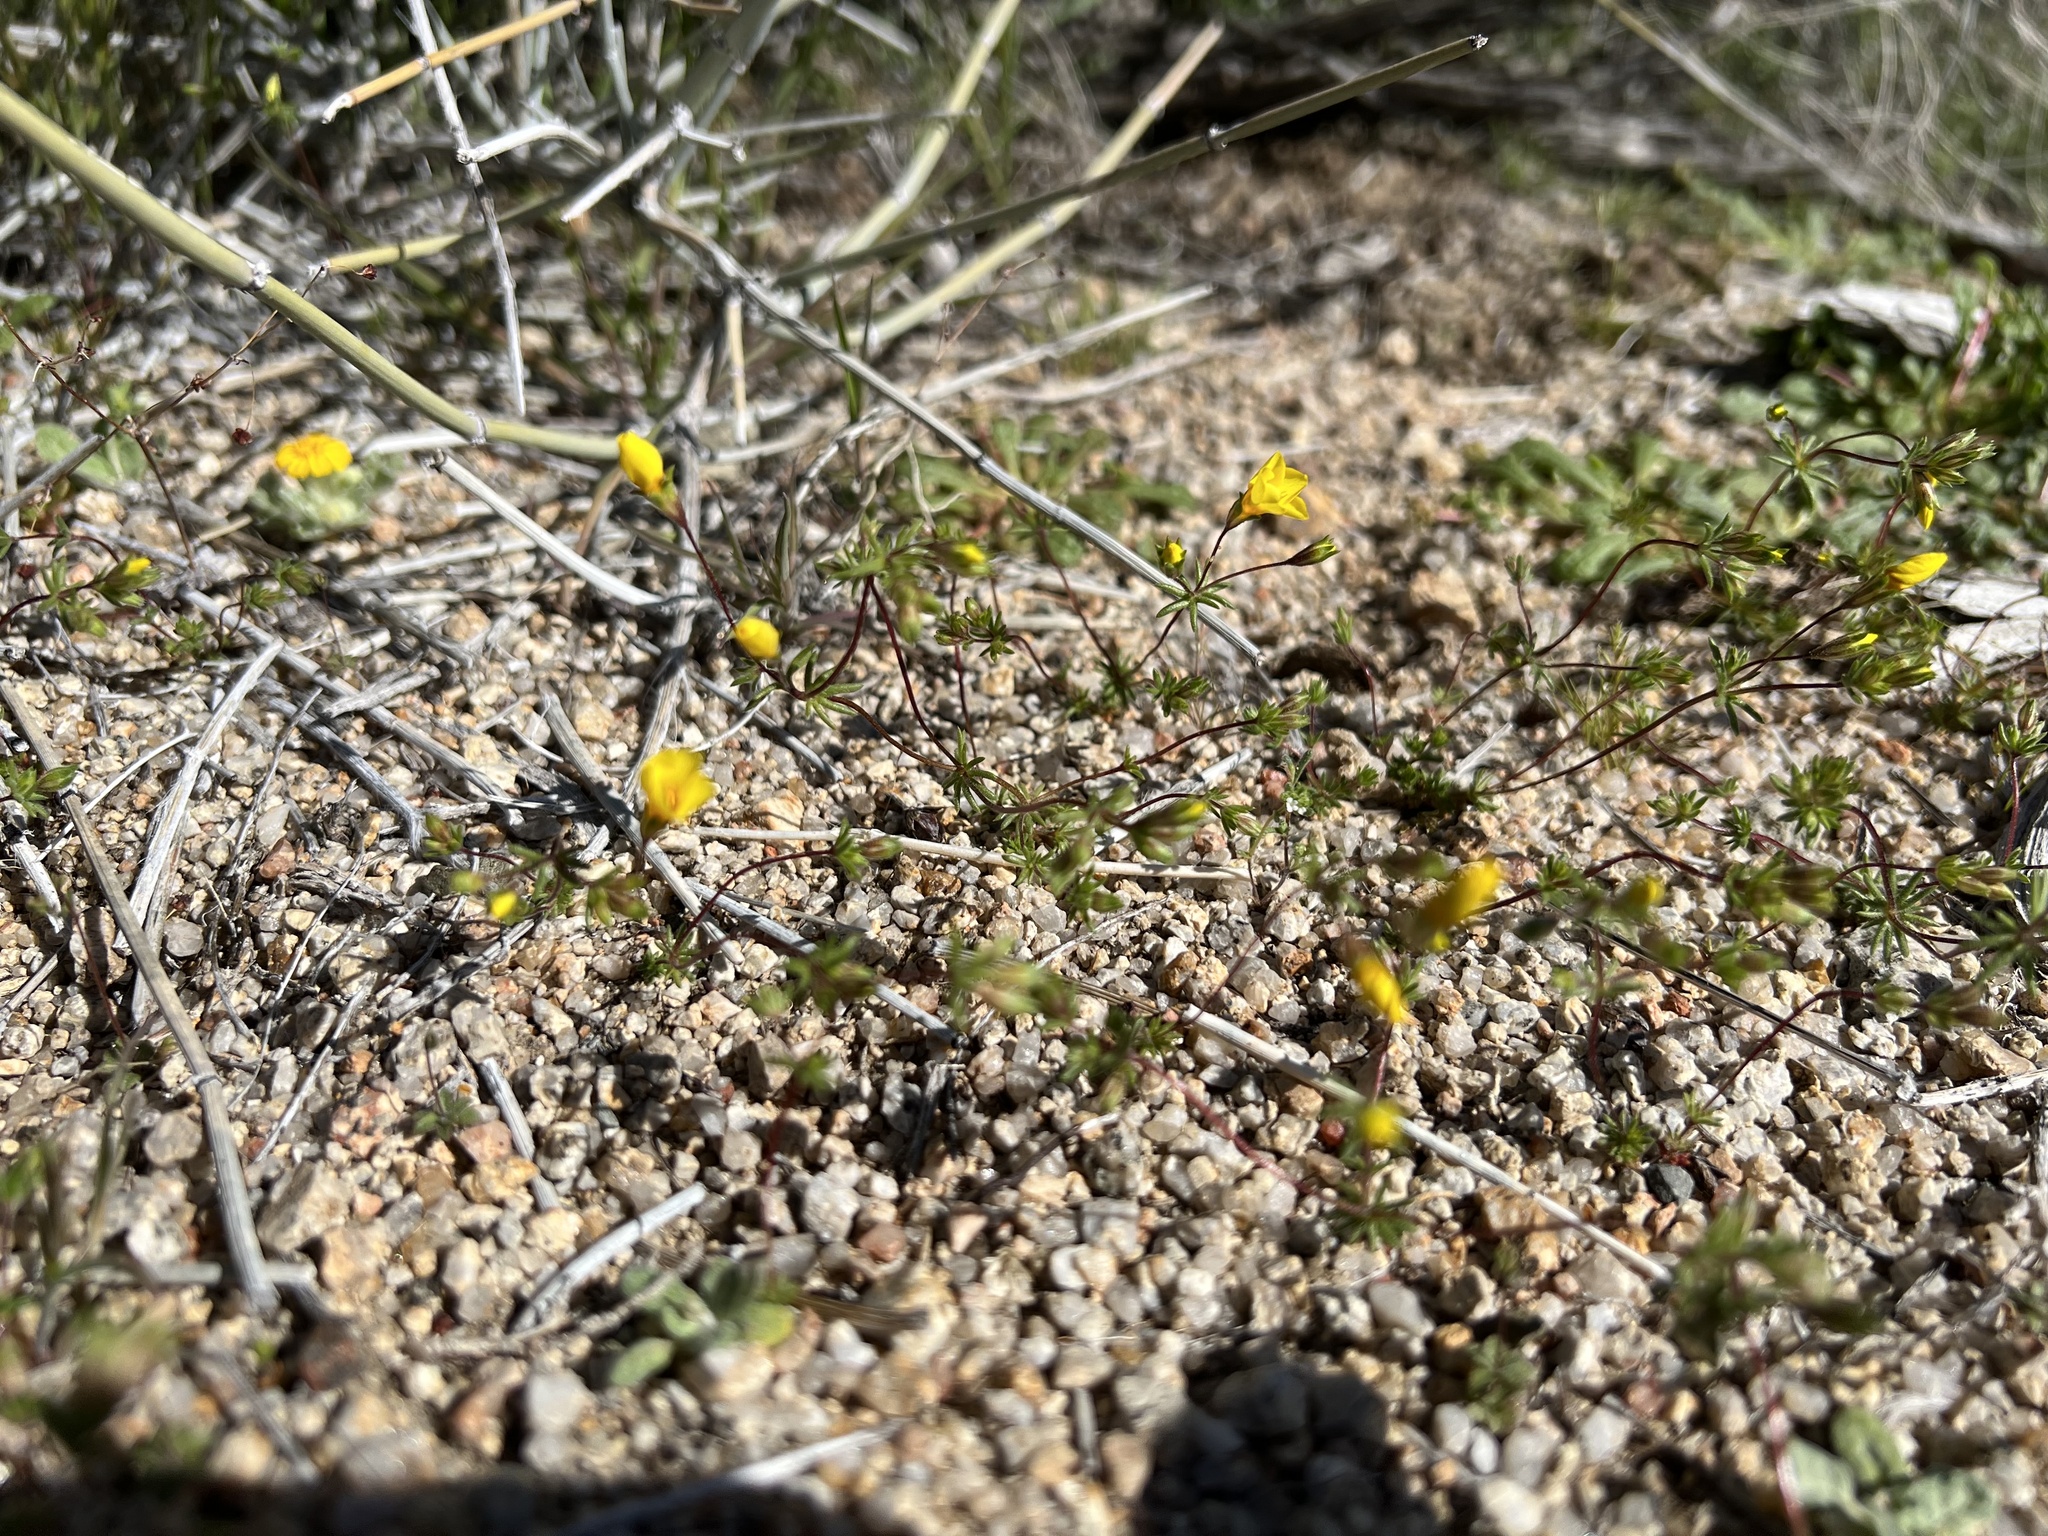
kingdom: Plantae
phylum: Tracheophyta
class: Magnoliopsida
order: Ericales
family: Polemoniaceae
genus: Leptosiphon
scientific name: Leptosiphon chrysanthus
